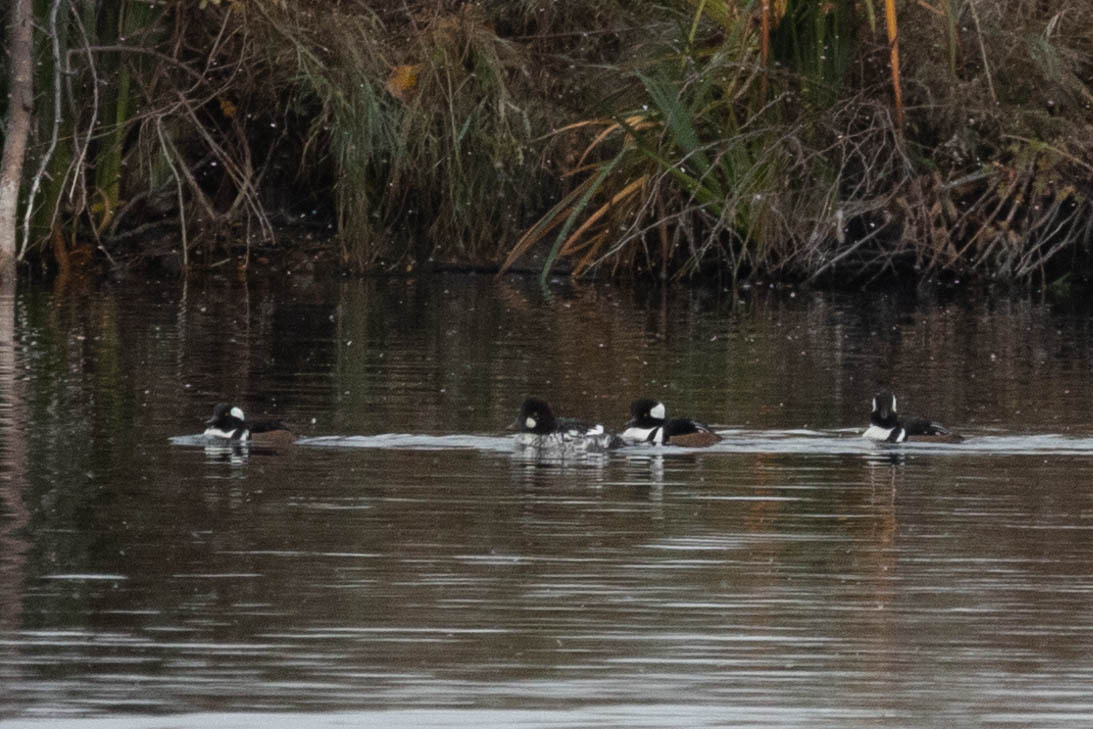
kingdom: Animalia
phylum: Chordata
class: Aves
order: Anseriformes
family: Anatidae
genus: Bucephala
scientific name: Bucephala clangula
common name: Common goldeneye
